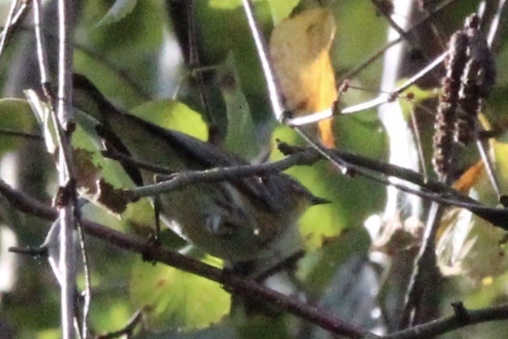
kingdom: Animalia
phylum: Chordata
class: Aves
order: Passeriformes
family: Parulidae
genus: Setophaga
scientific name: Setophaga coronata
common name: Myrtle warbler
